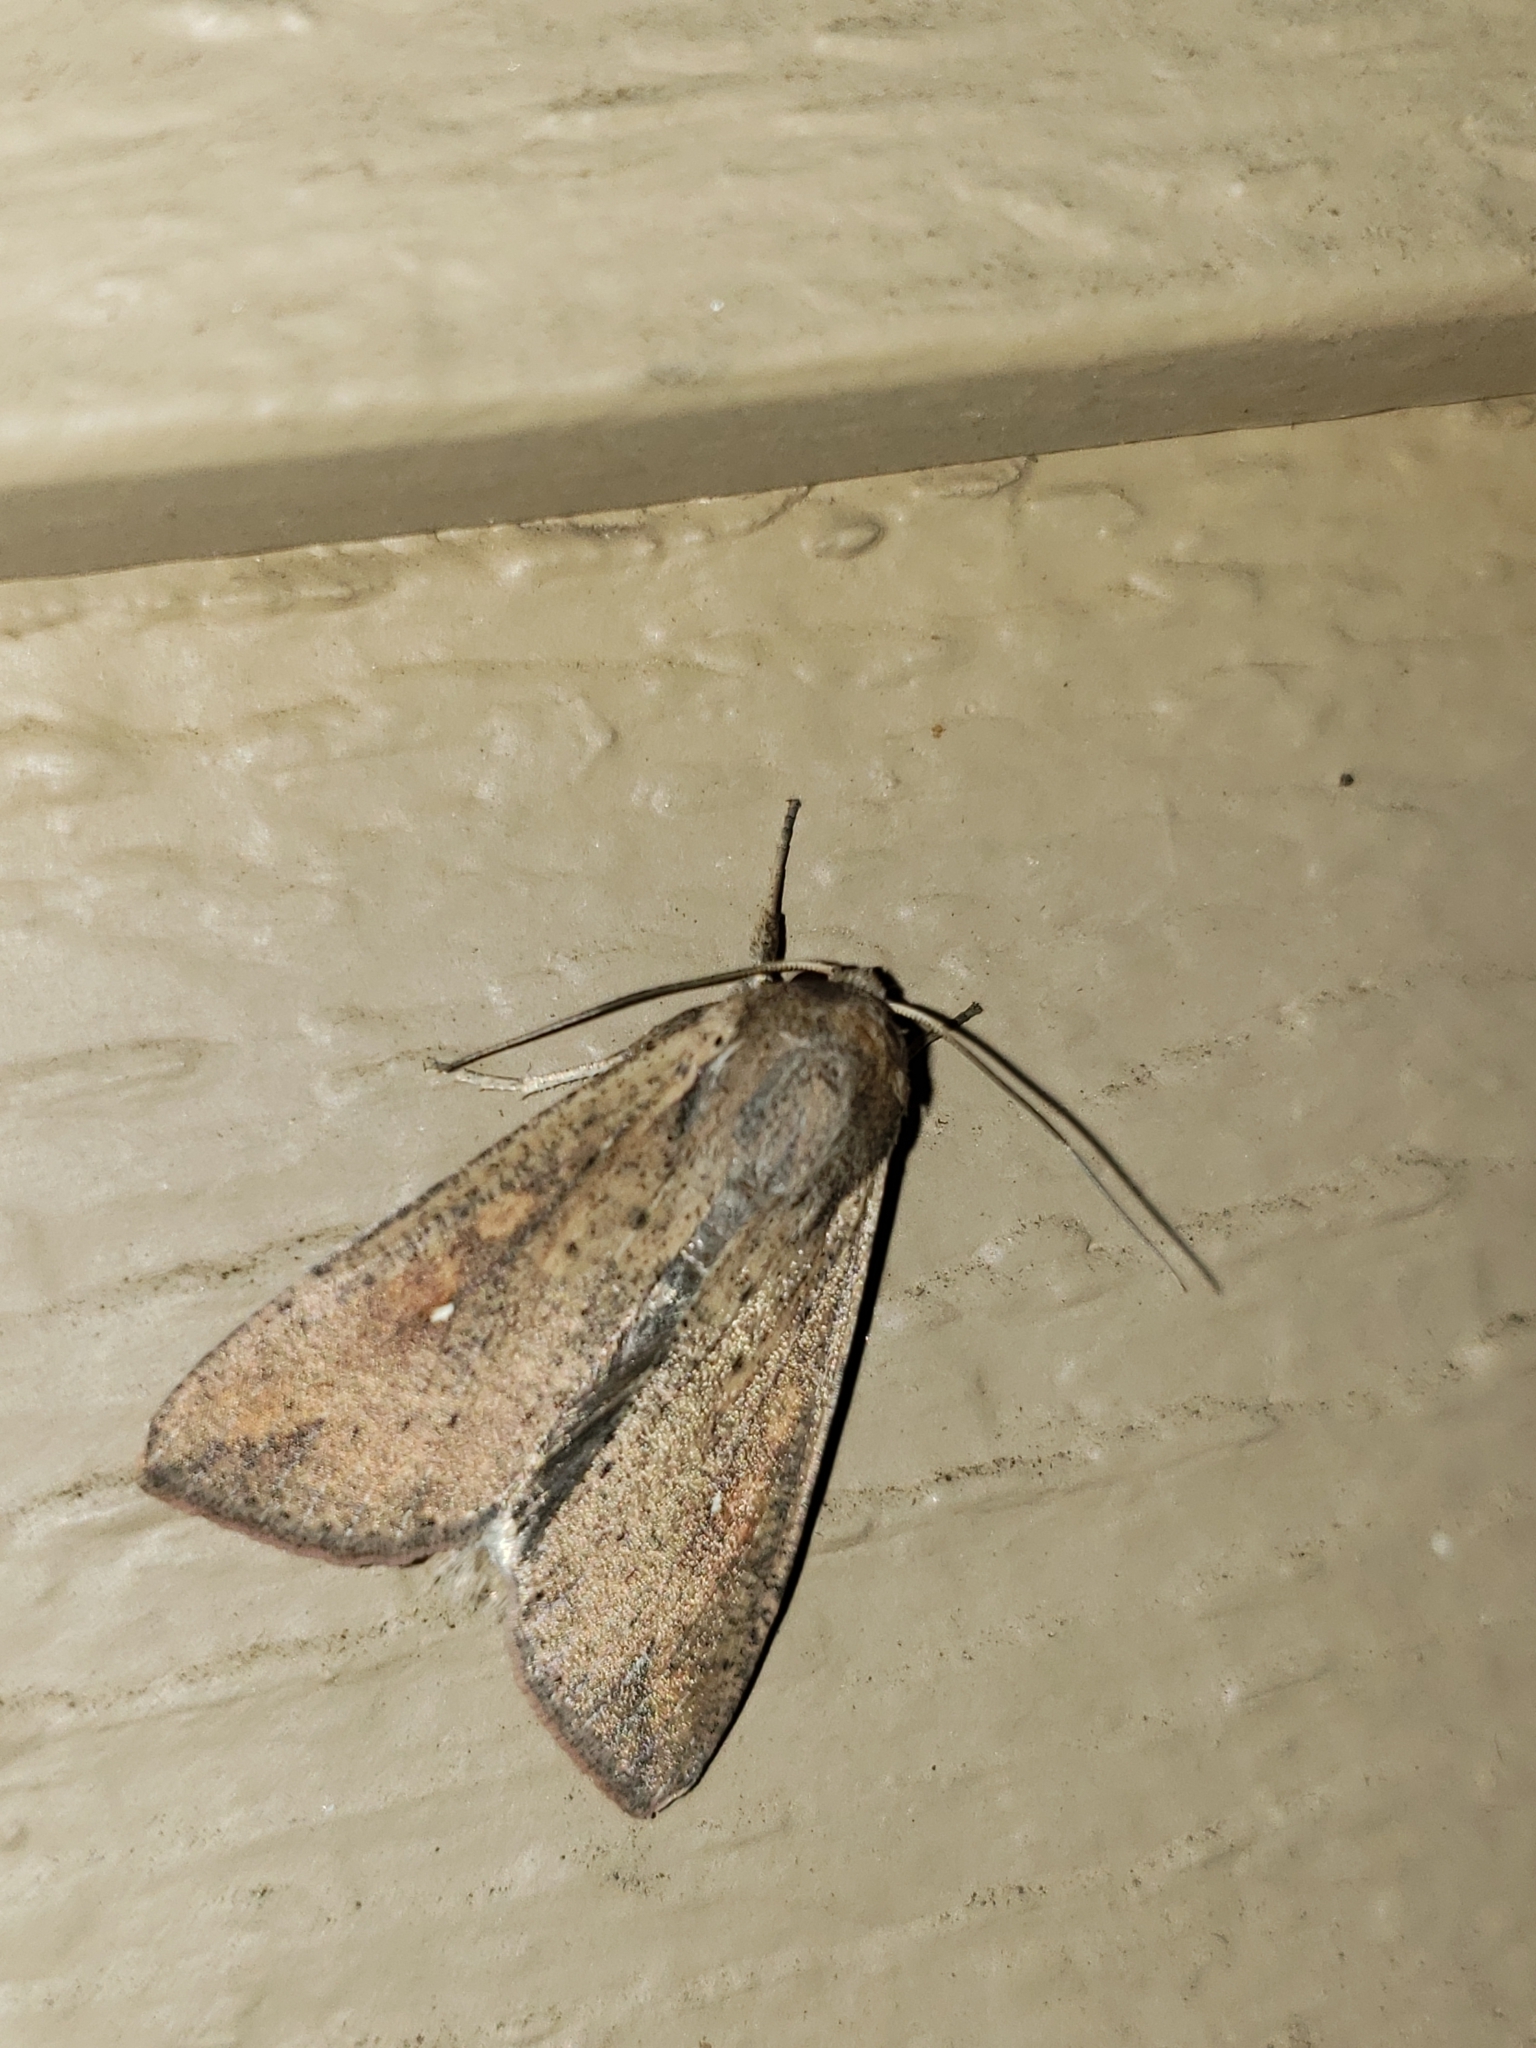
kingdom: Animalia
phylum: Arthropoda
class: Insecta
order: Lepidoptera
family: Noctuidae
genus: Mythimna
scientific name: Mythimna unipuncta
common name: White-speck
